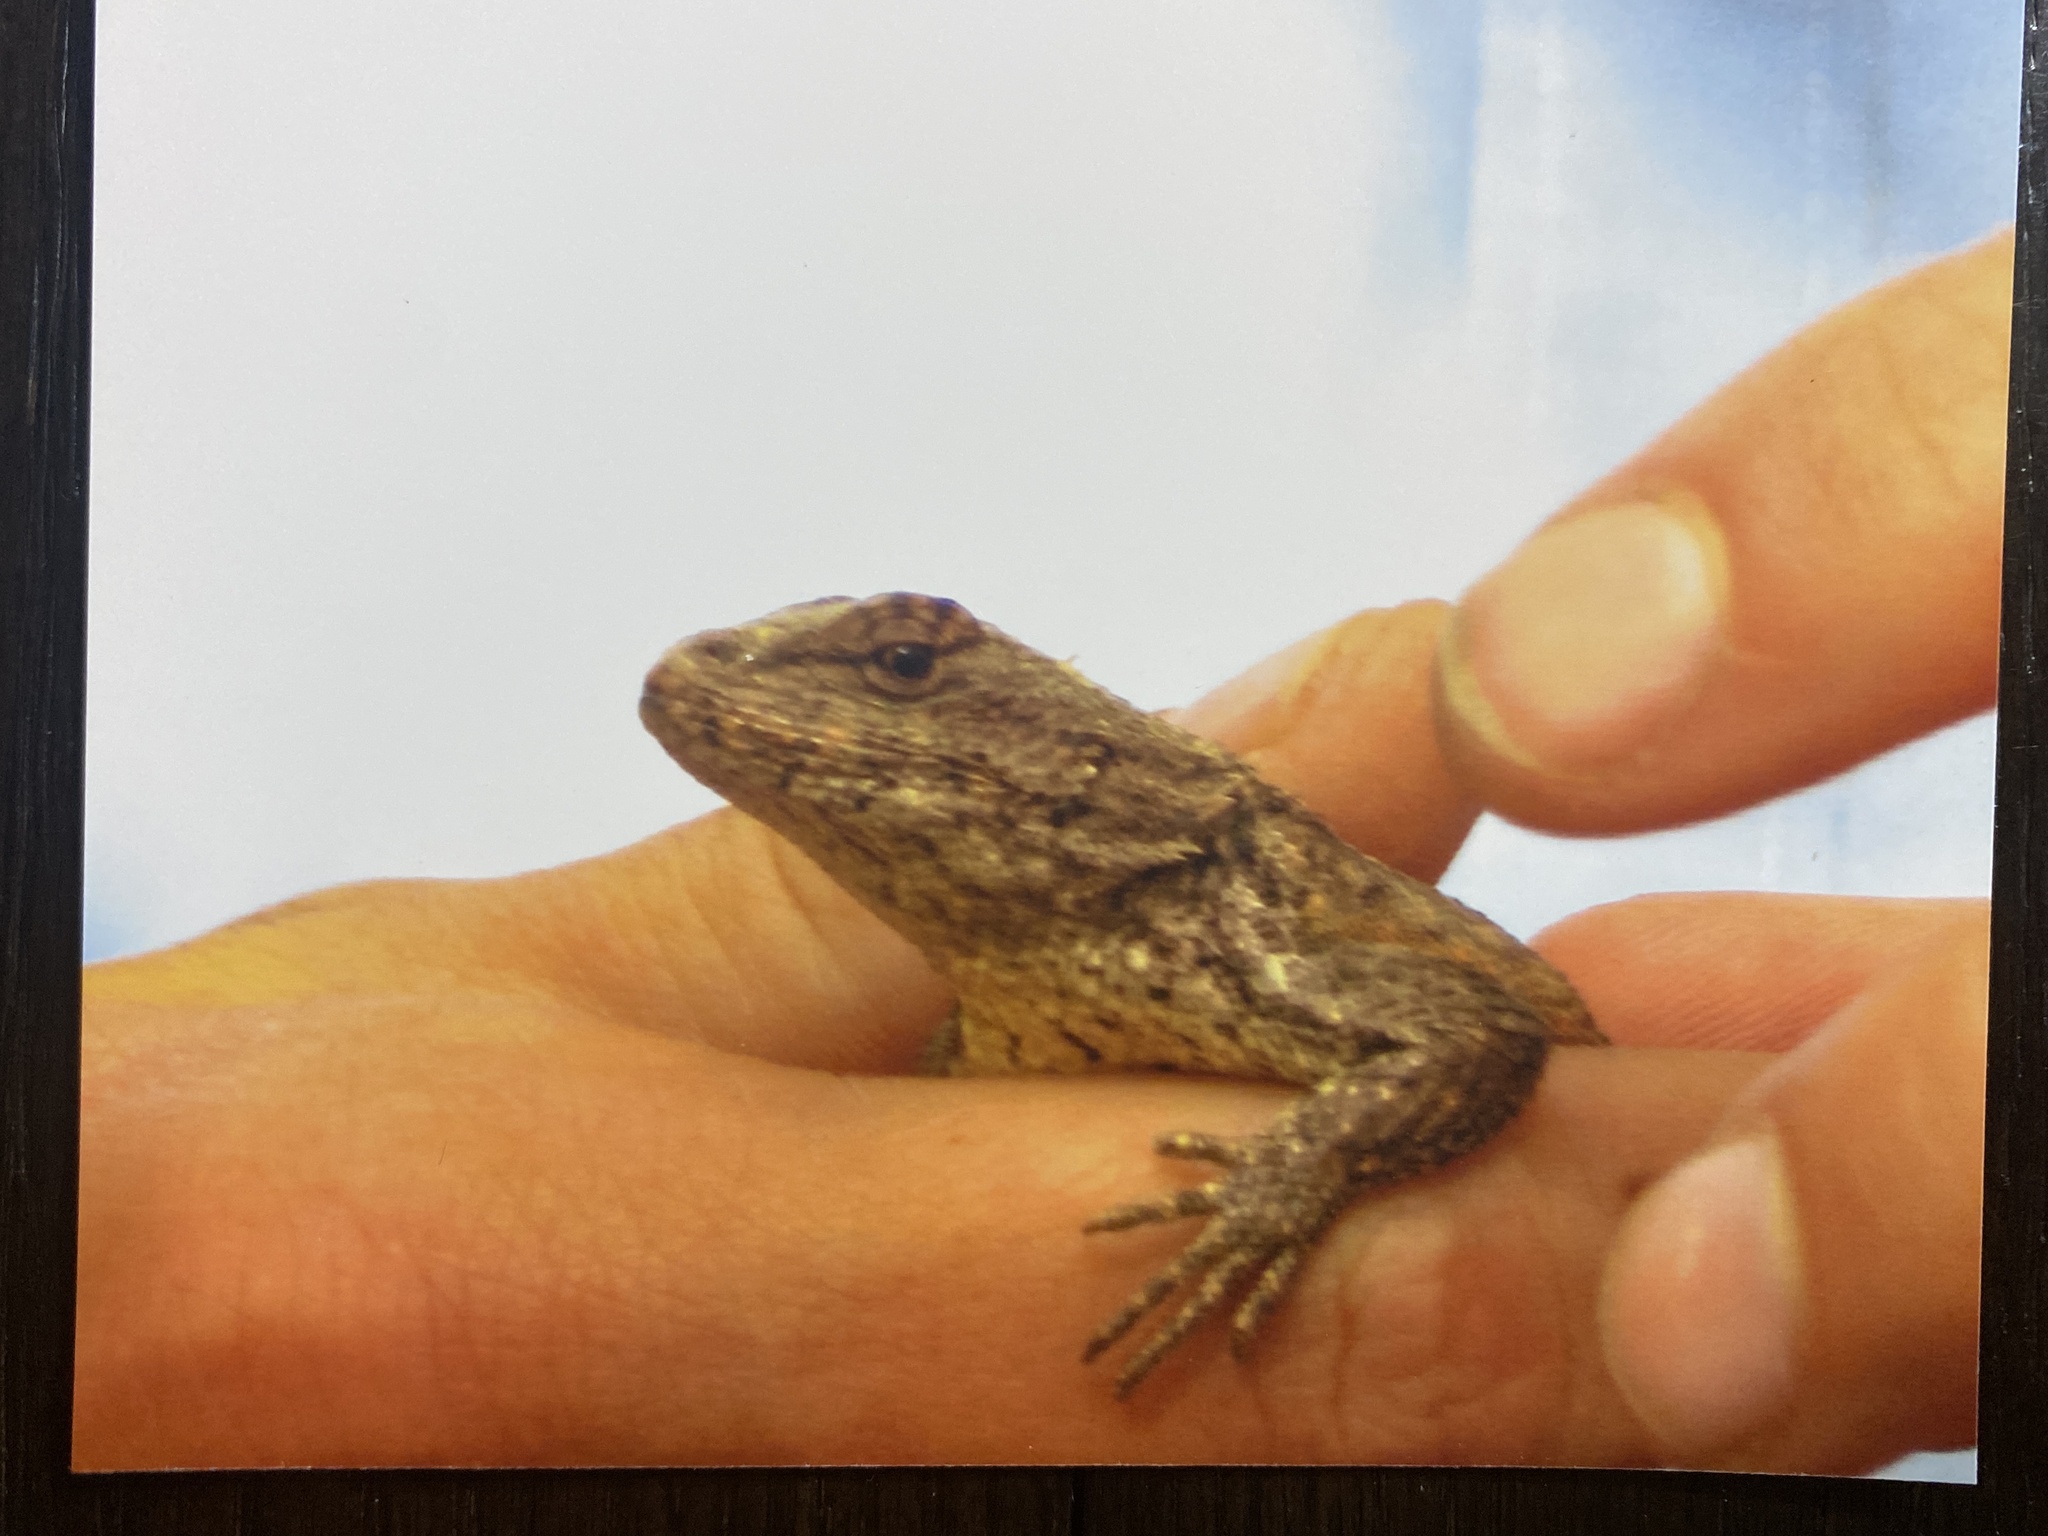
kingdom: Animalia
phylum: Chordata
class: Squamata
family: Phrynosomatidae
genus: Sceloporus
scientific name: Sceloporus undulatus
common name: Eastern fence lizard
